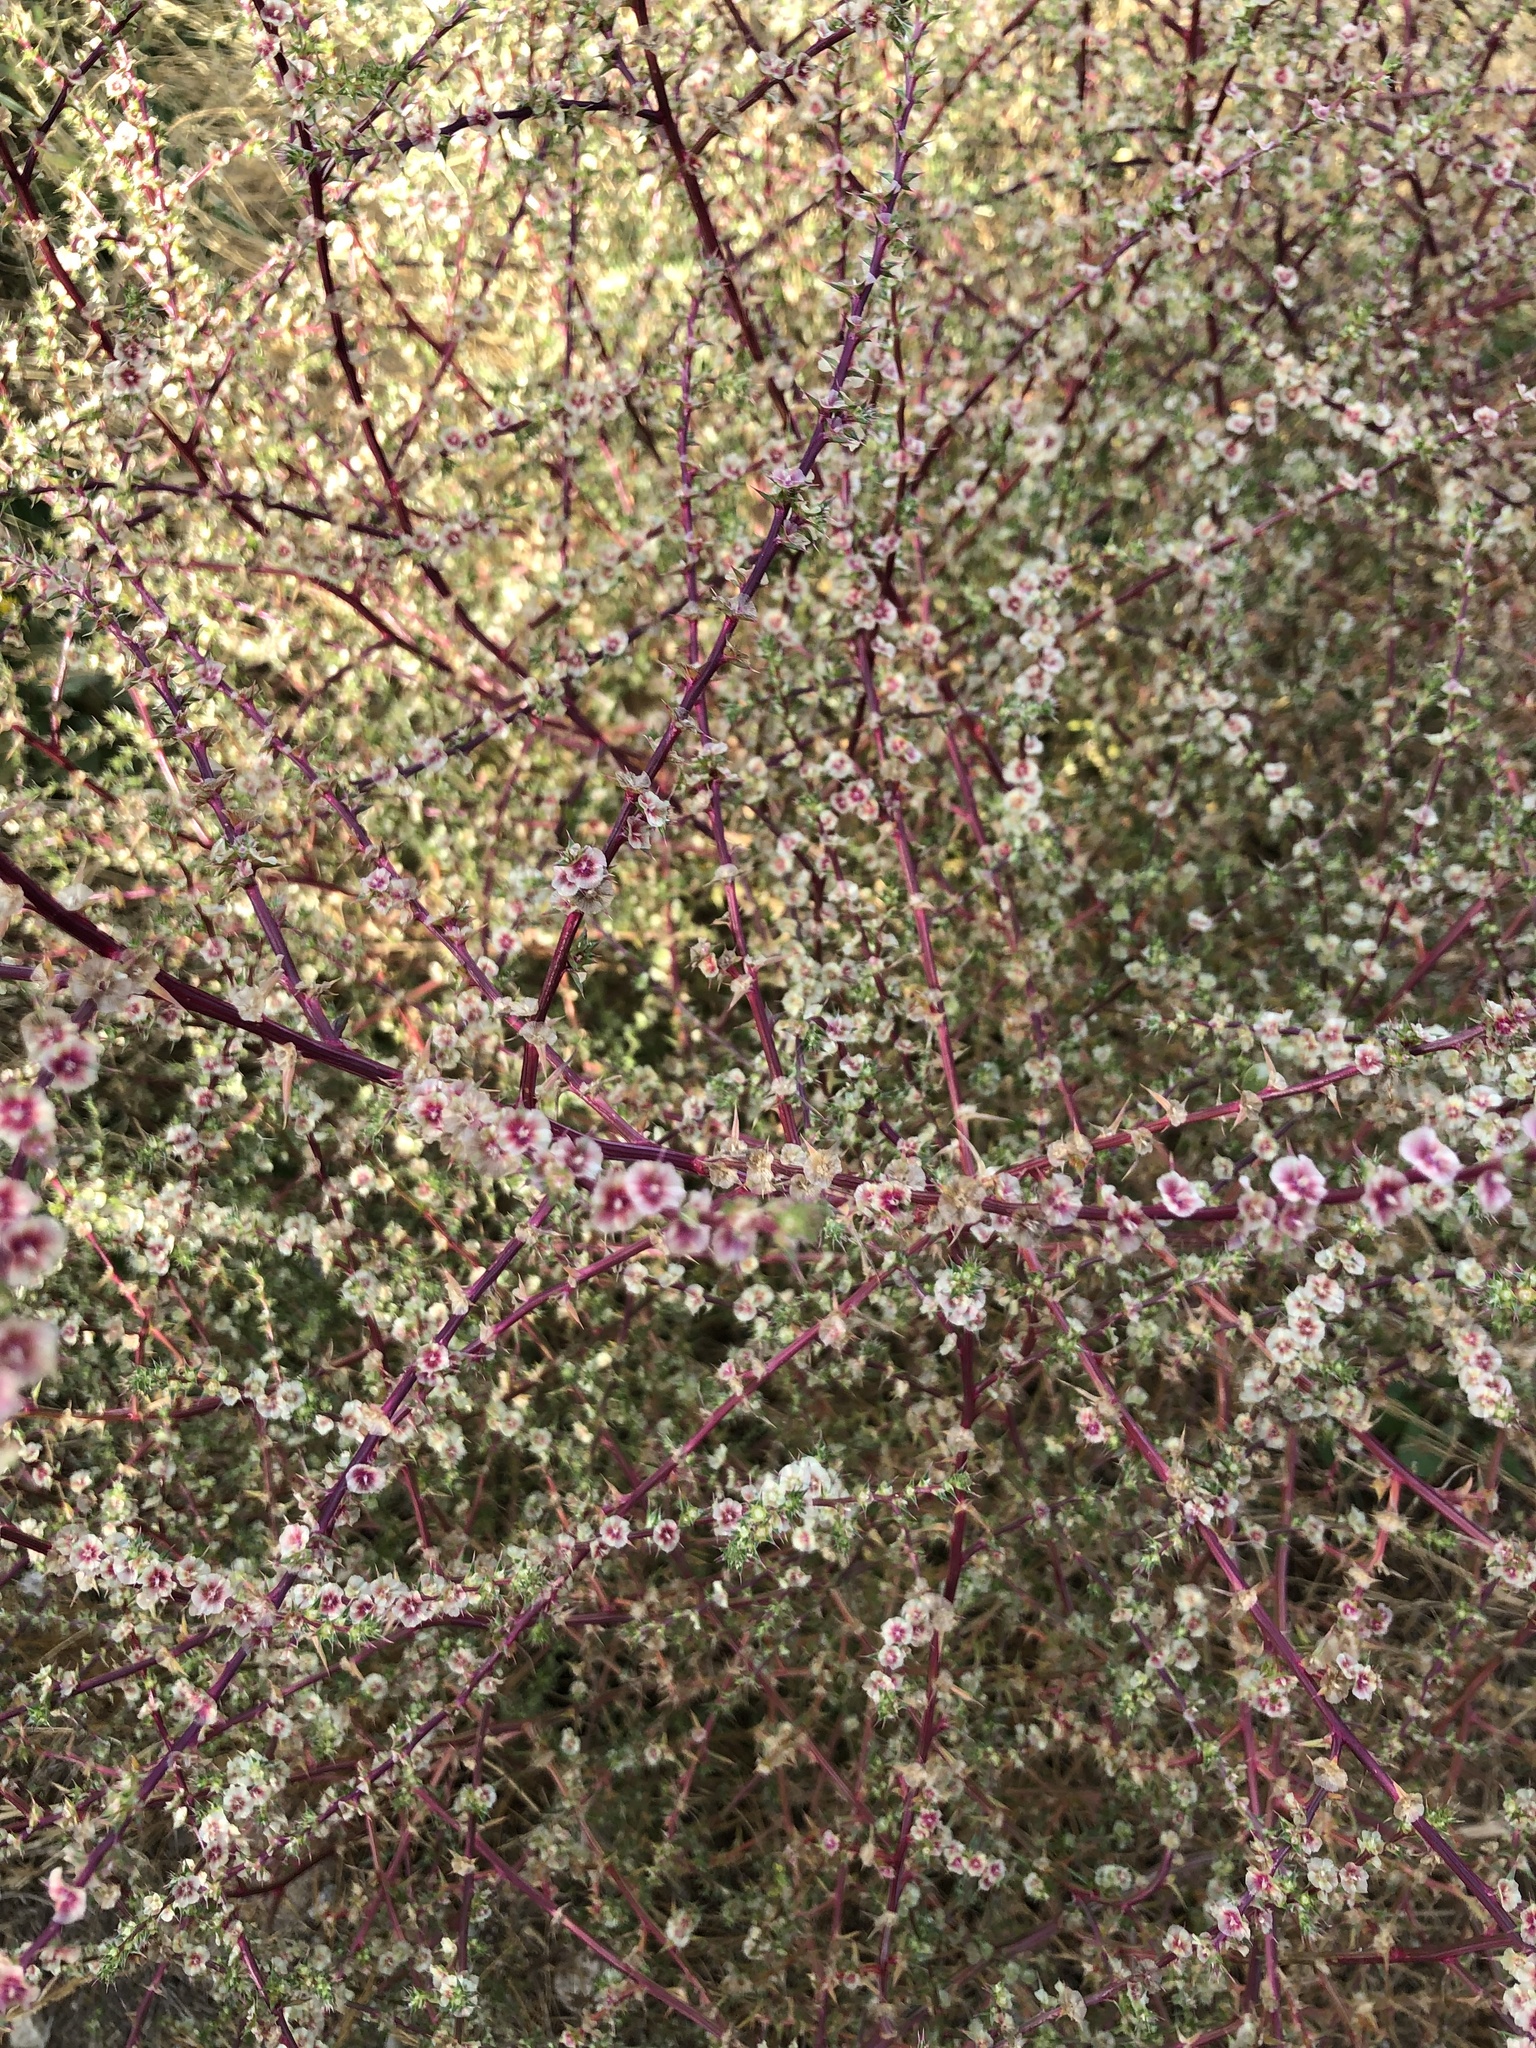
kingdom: Plantae
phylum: Tracheophyta
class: Magnoliopsida
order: Caryophyllales
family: Amaranthaceae
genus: Salsola
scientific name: Salsola australis
